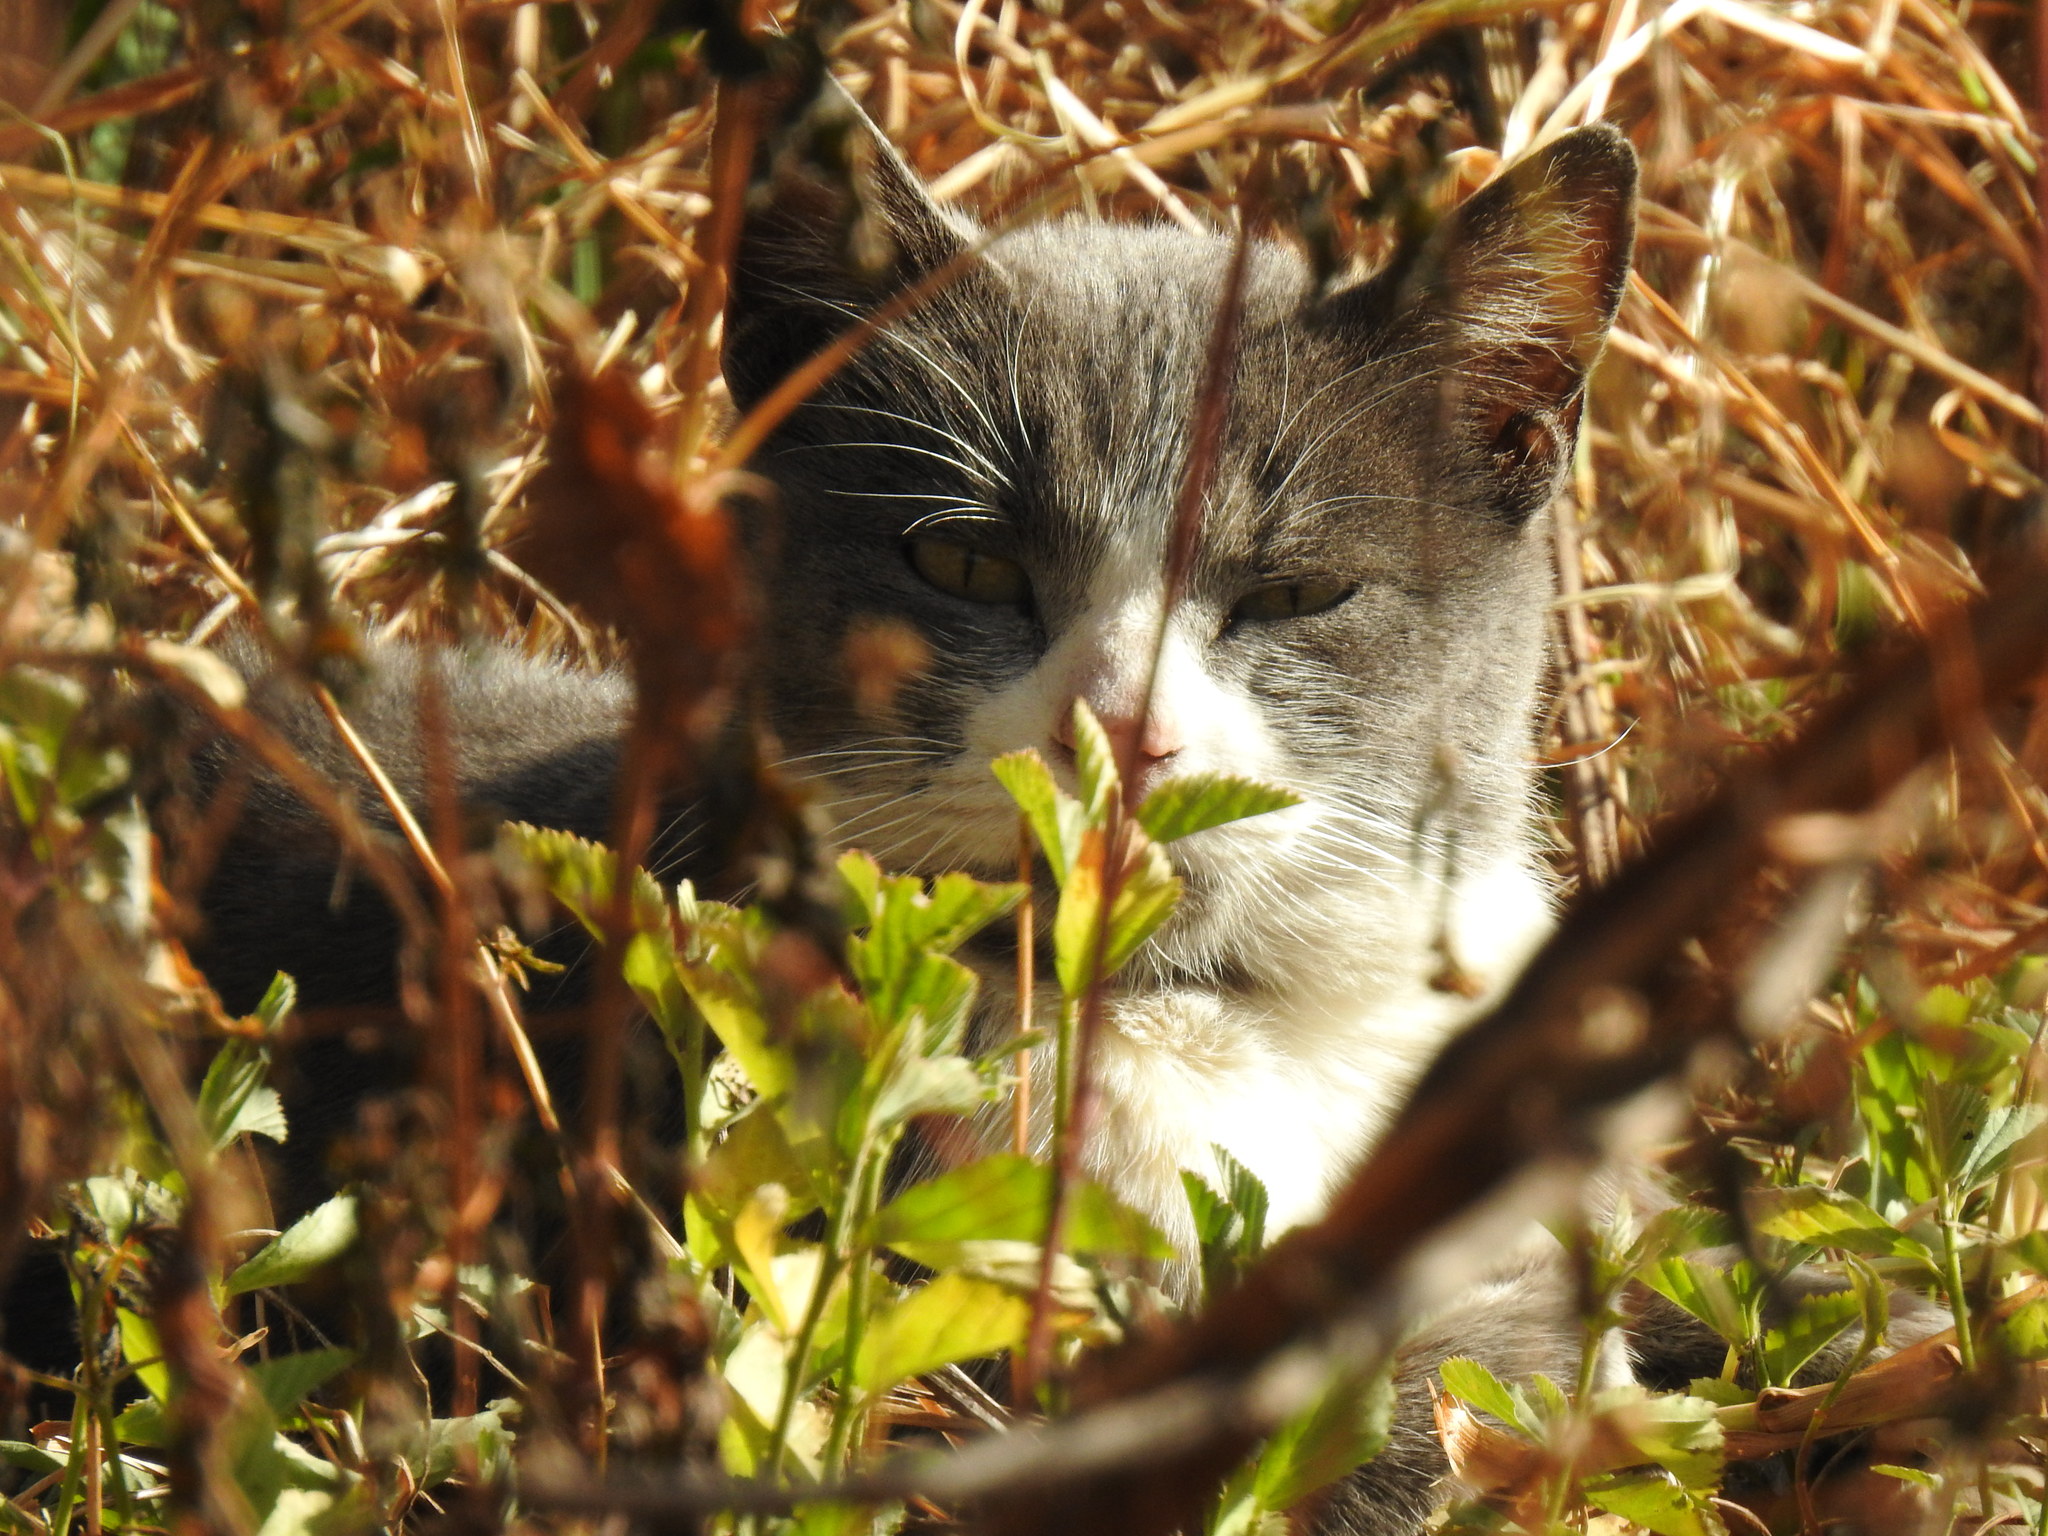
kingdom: Animalia
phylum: Chordata
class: Mammalia
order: Carnivora
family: Felidae
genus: Felis
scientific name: Felis catus
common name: Domestic cat
